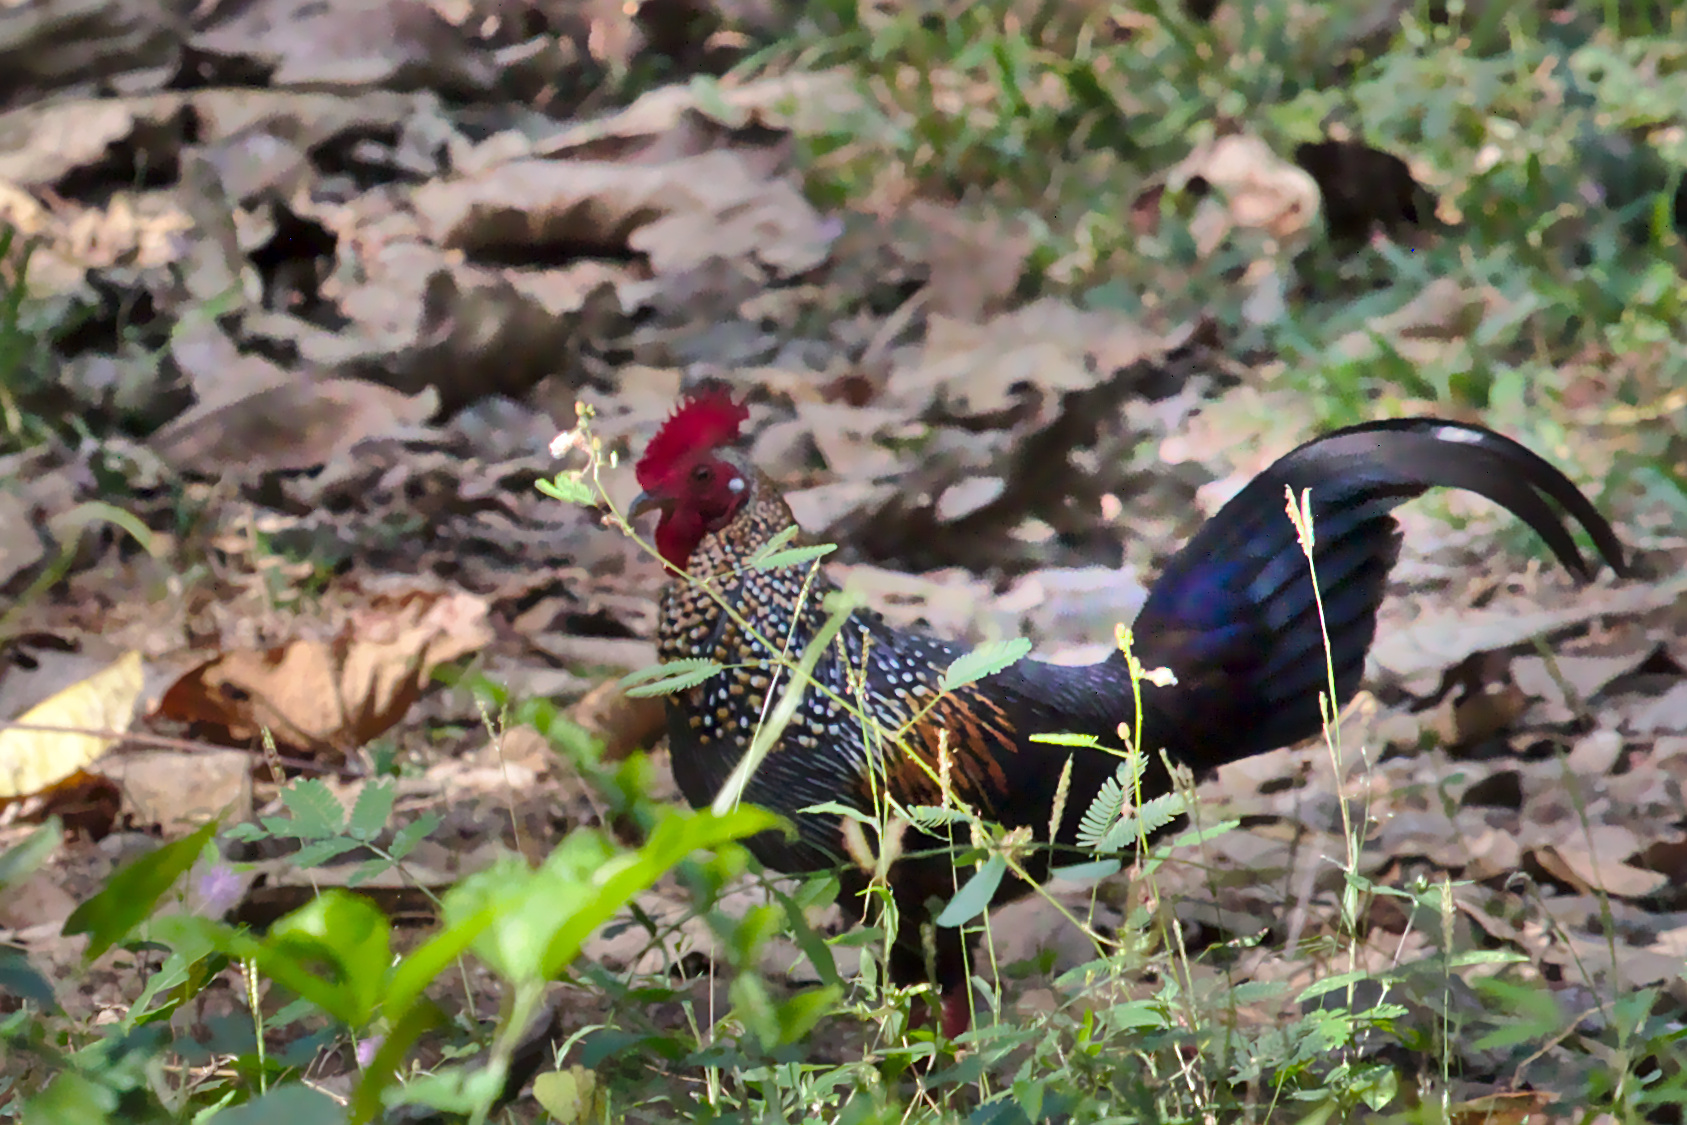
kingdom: Animalia
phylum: Chordata
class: Aves
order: Galliformes
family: Phasianidae
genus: Gallus
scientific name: Gallus sonneratii
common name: Grey junglefowl
